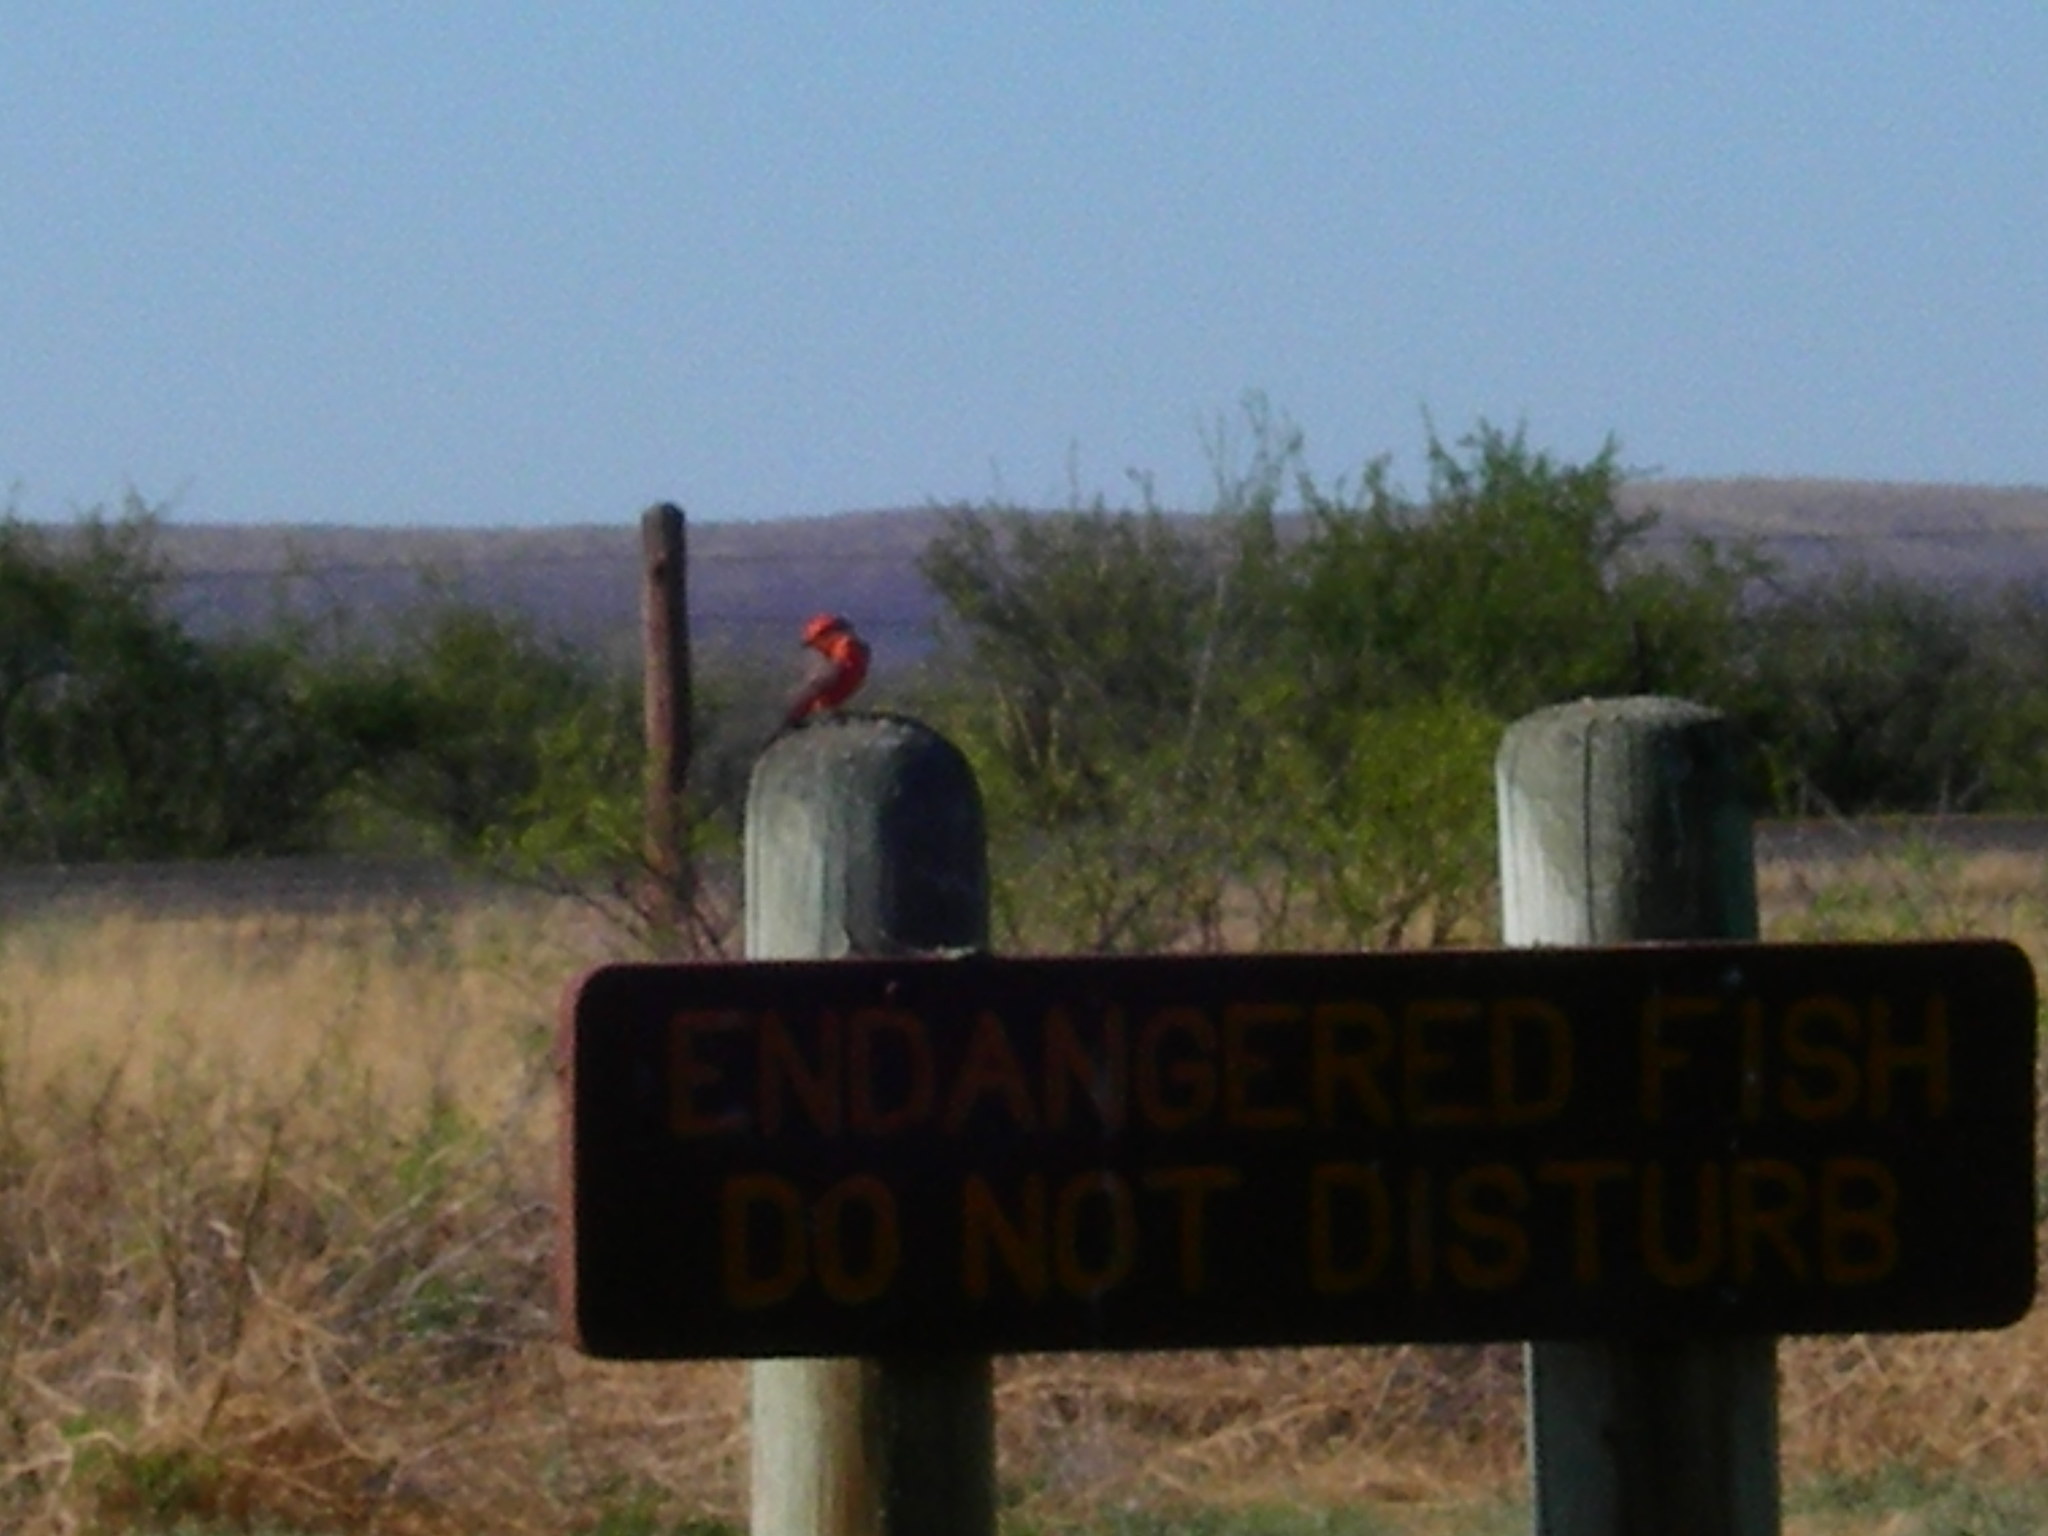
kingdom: Animalia
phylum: Chordata
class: Aves
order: Passeriformes
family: Tyrannidae
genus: Pyrocephalus
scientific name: Pyrocephalus rubinus
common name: Vermilion flycatcher
